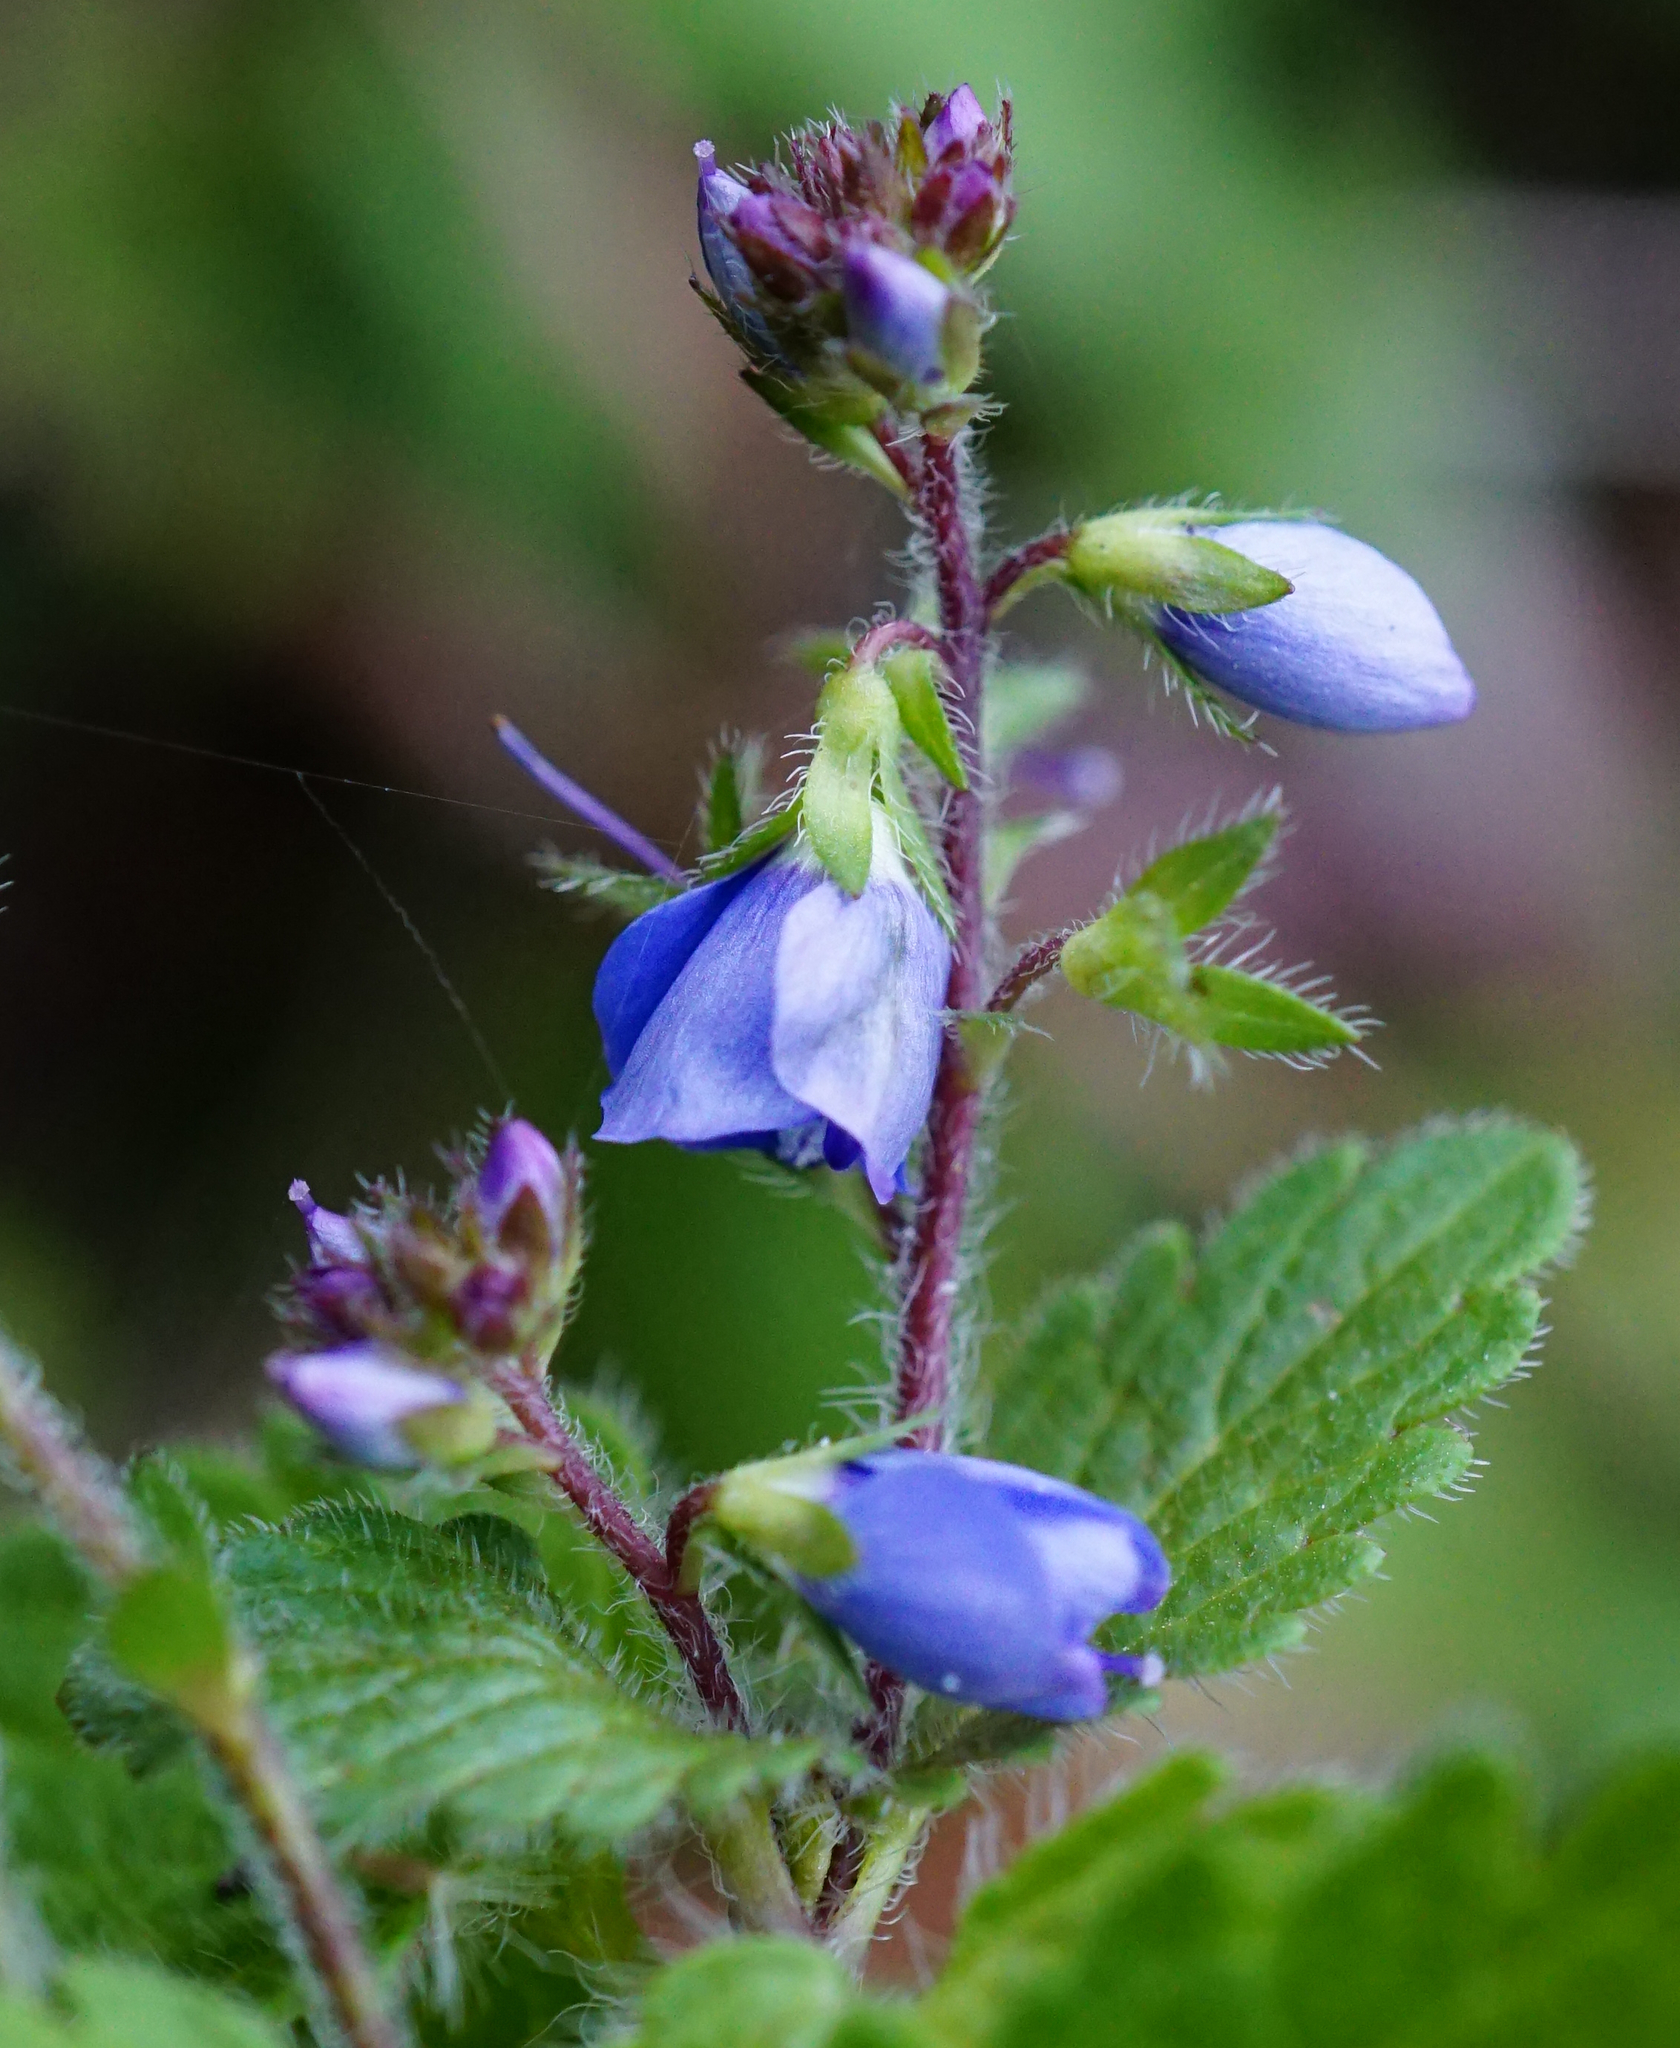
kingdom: Plantae
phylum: Tracheophyta
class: Magnoliopsida
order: Lamiales
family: Plantaginaceae
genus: Veronica
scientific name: Veronica chamaedrys
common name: Germander speedwell
